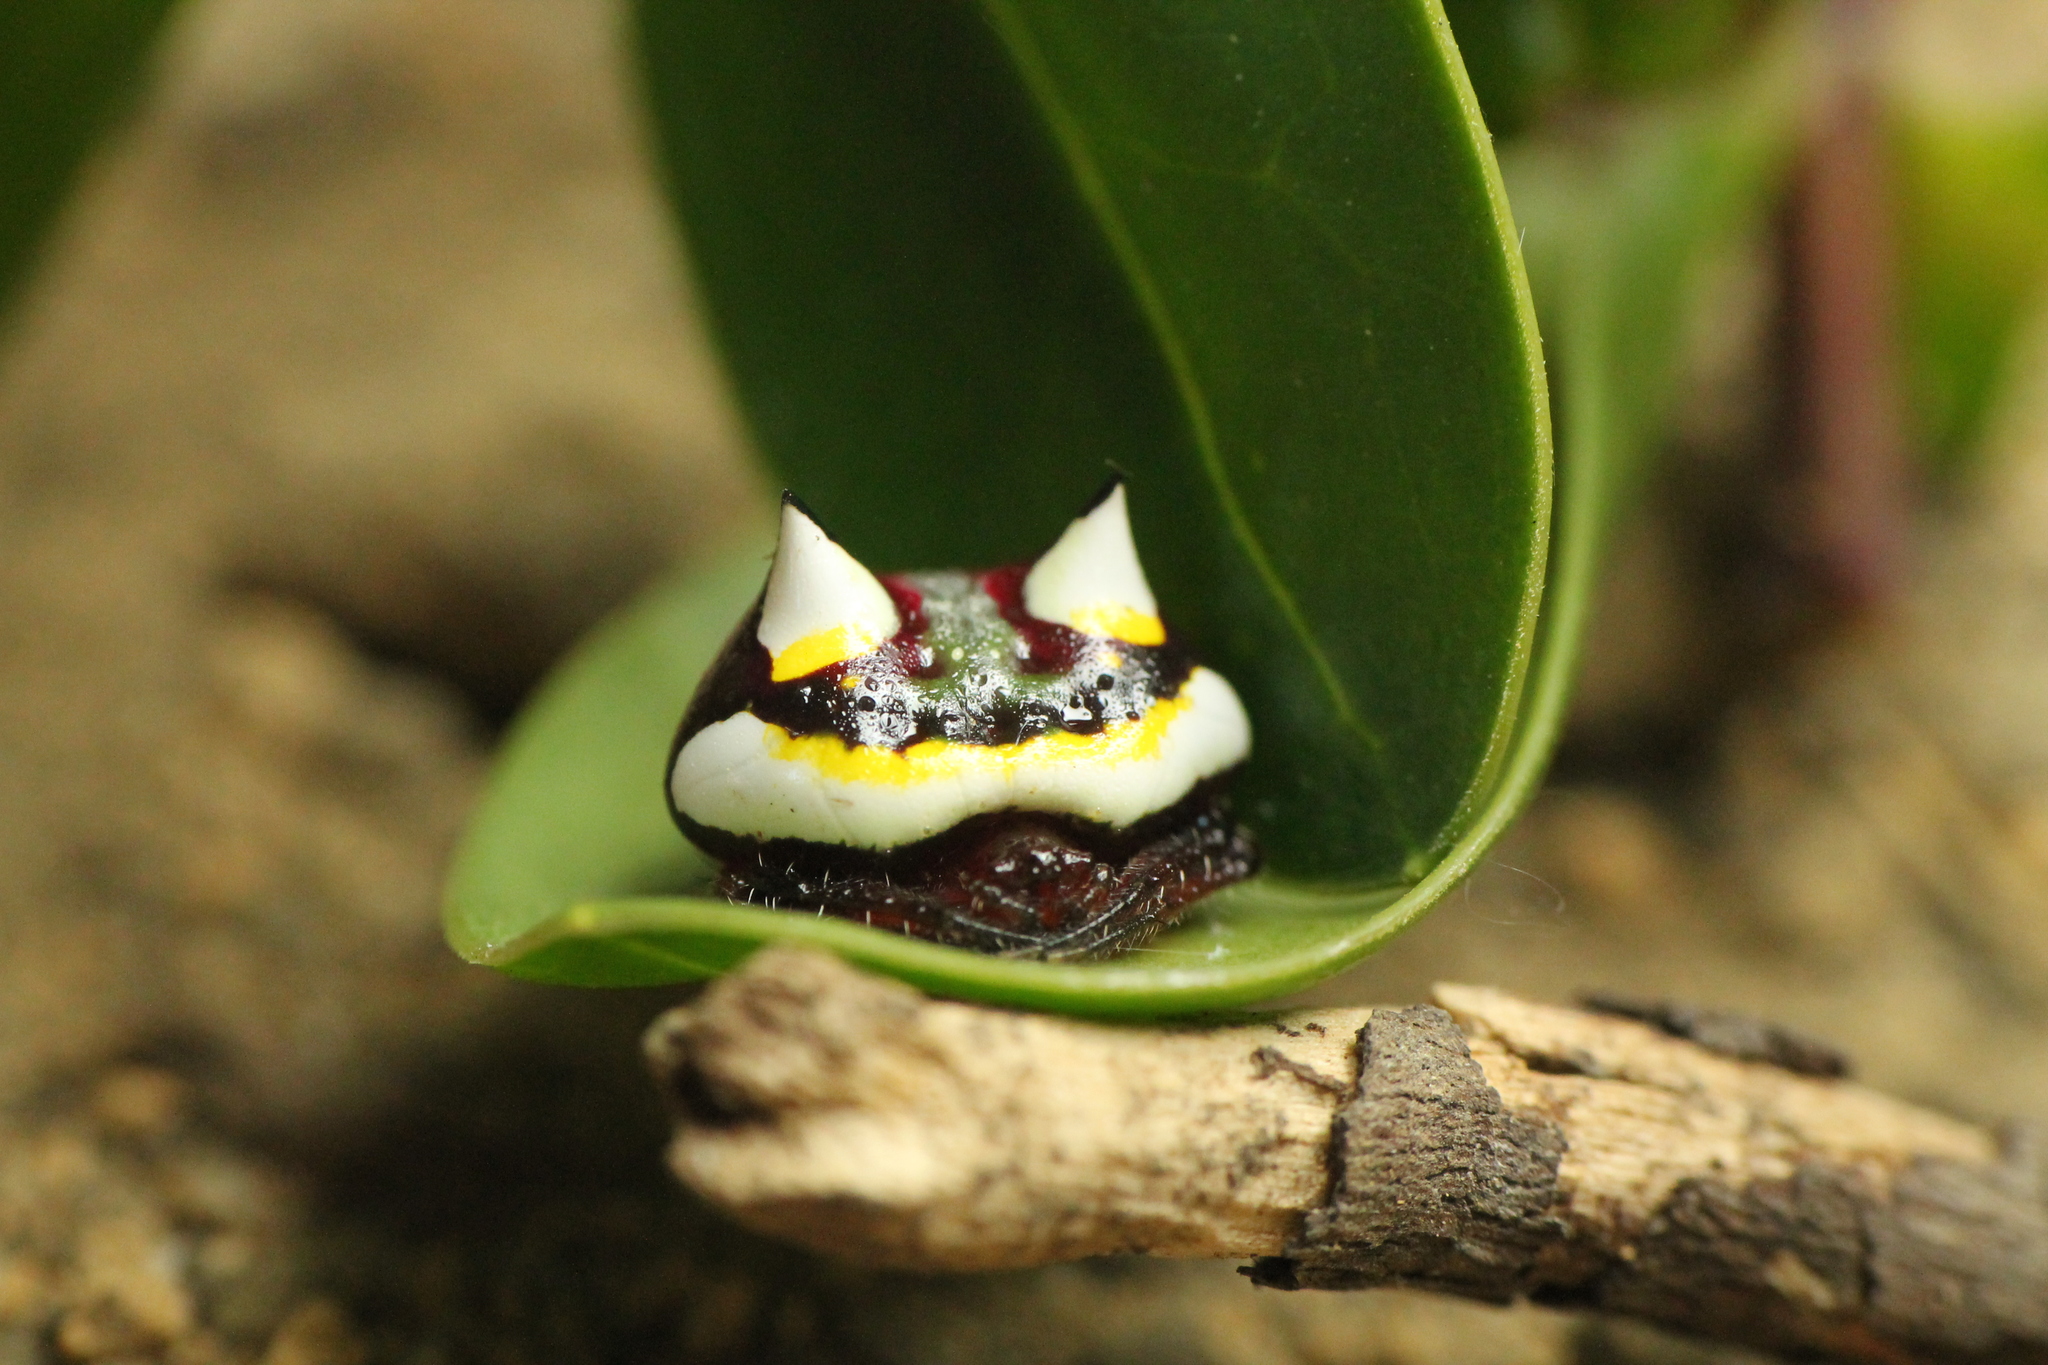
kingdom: Animalia
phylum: Arthropoda
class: Arachnida
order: Araneae
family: Araneidae
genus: Poecilopachys
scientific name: Poecilopachys australasia
